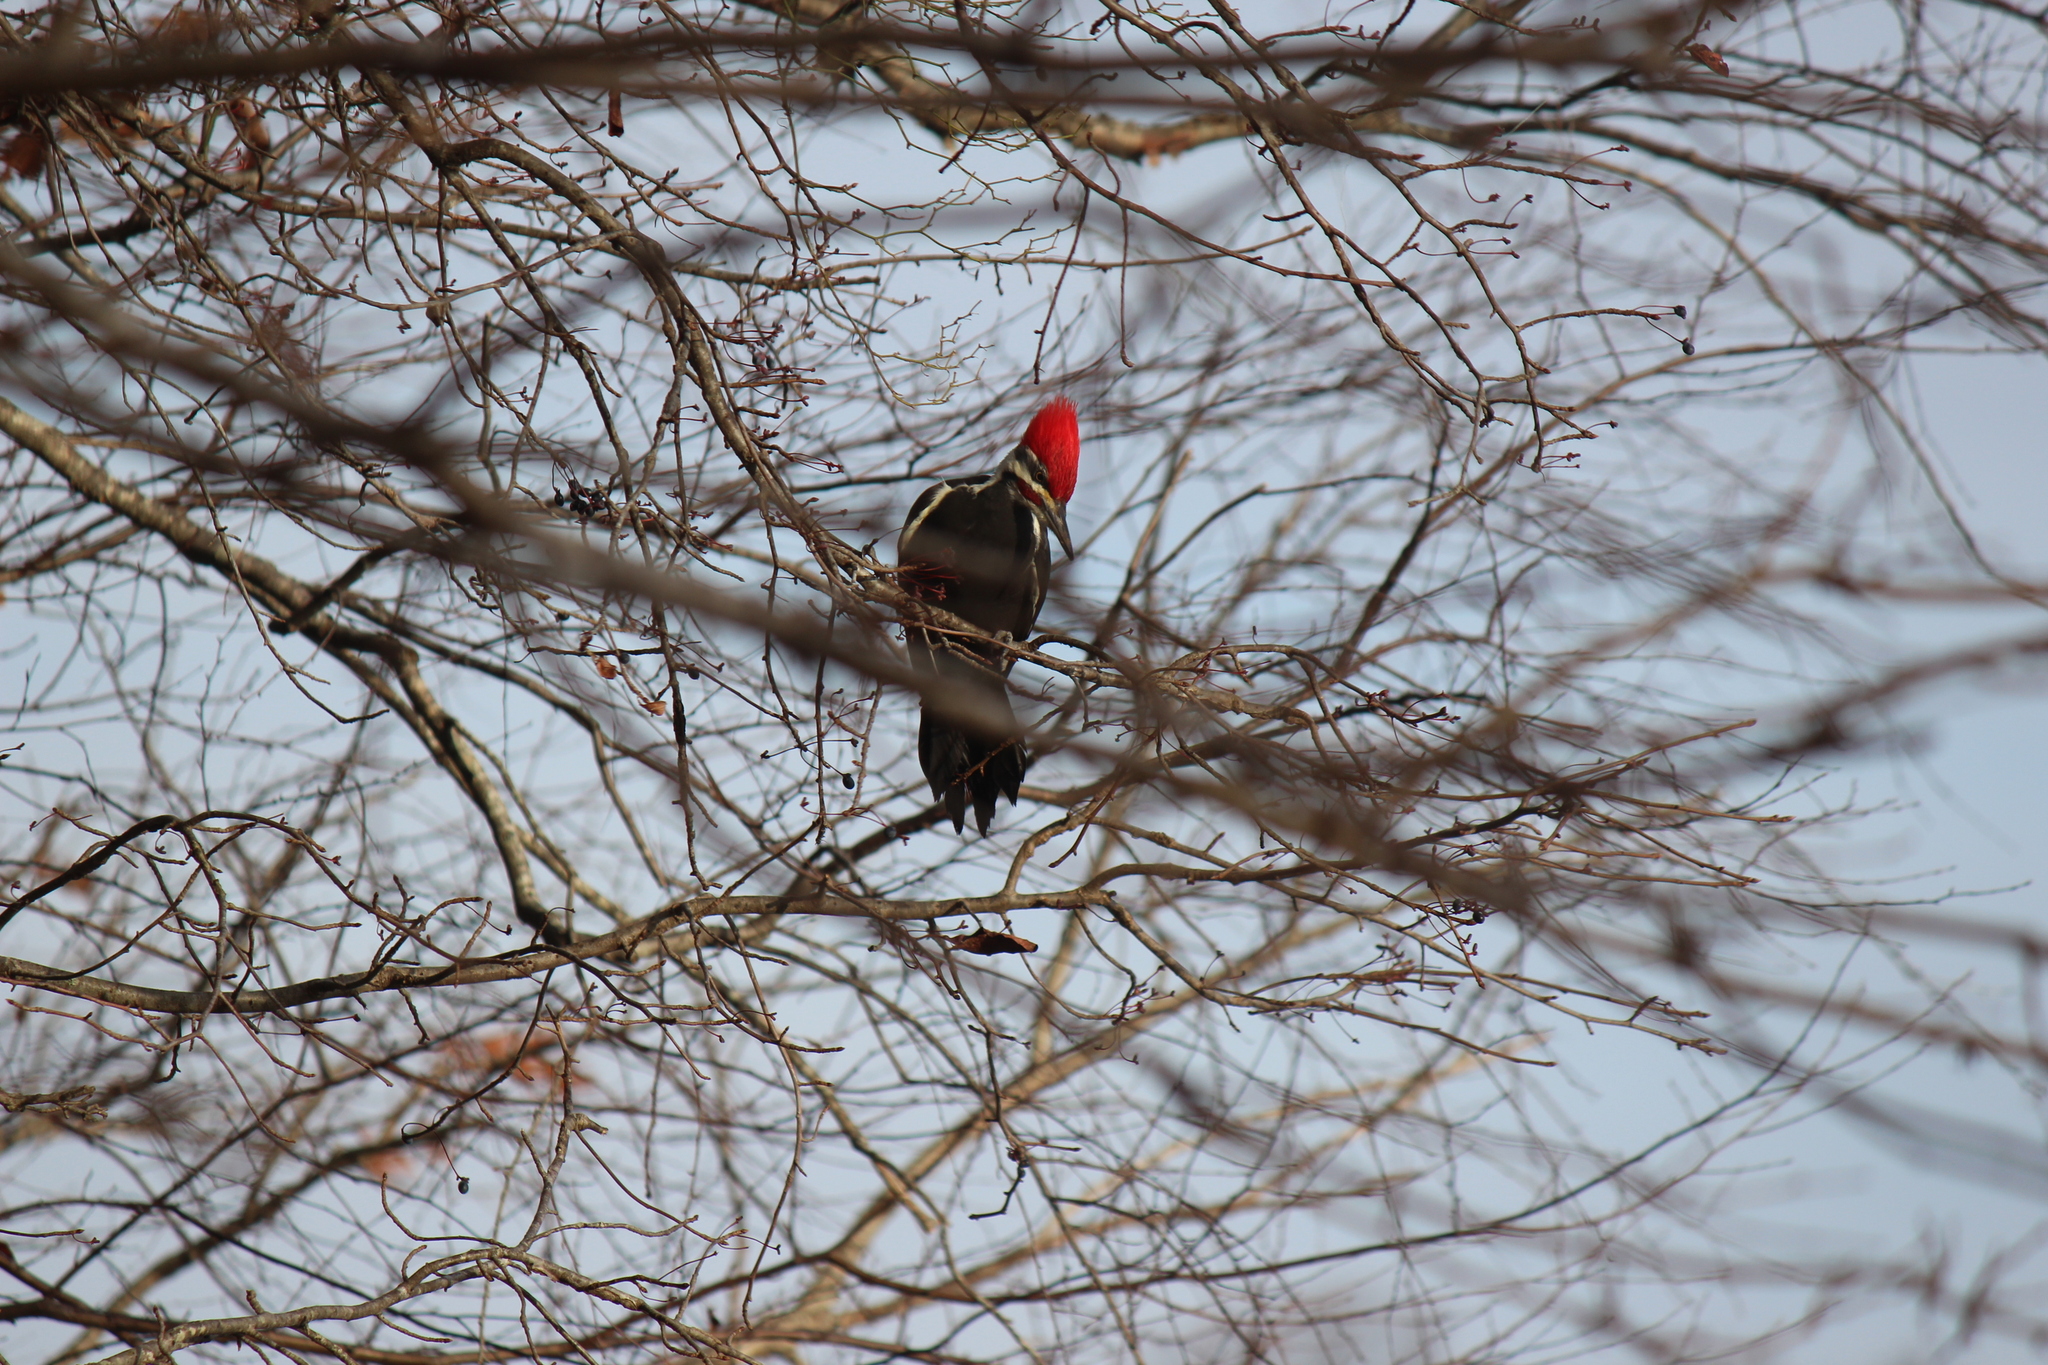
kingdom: Animalia
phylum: Chordata
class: Aves
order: Piciformes
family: Picidae
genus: Dryocopus
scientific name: Dryocopus pileatus
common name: Pileated woodpecker
